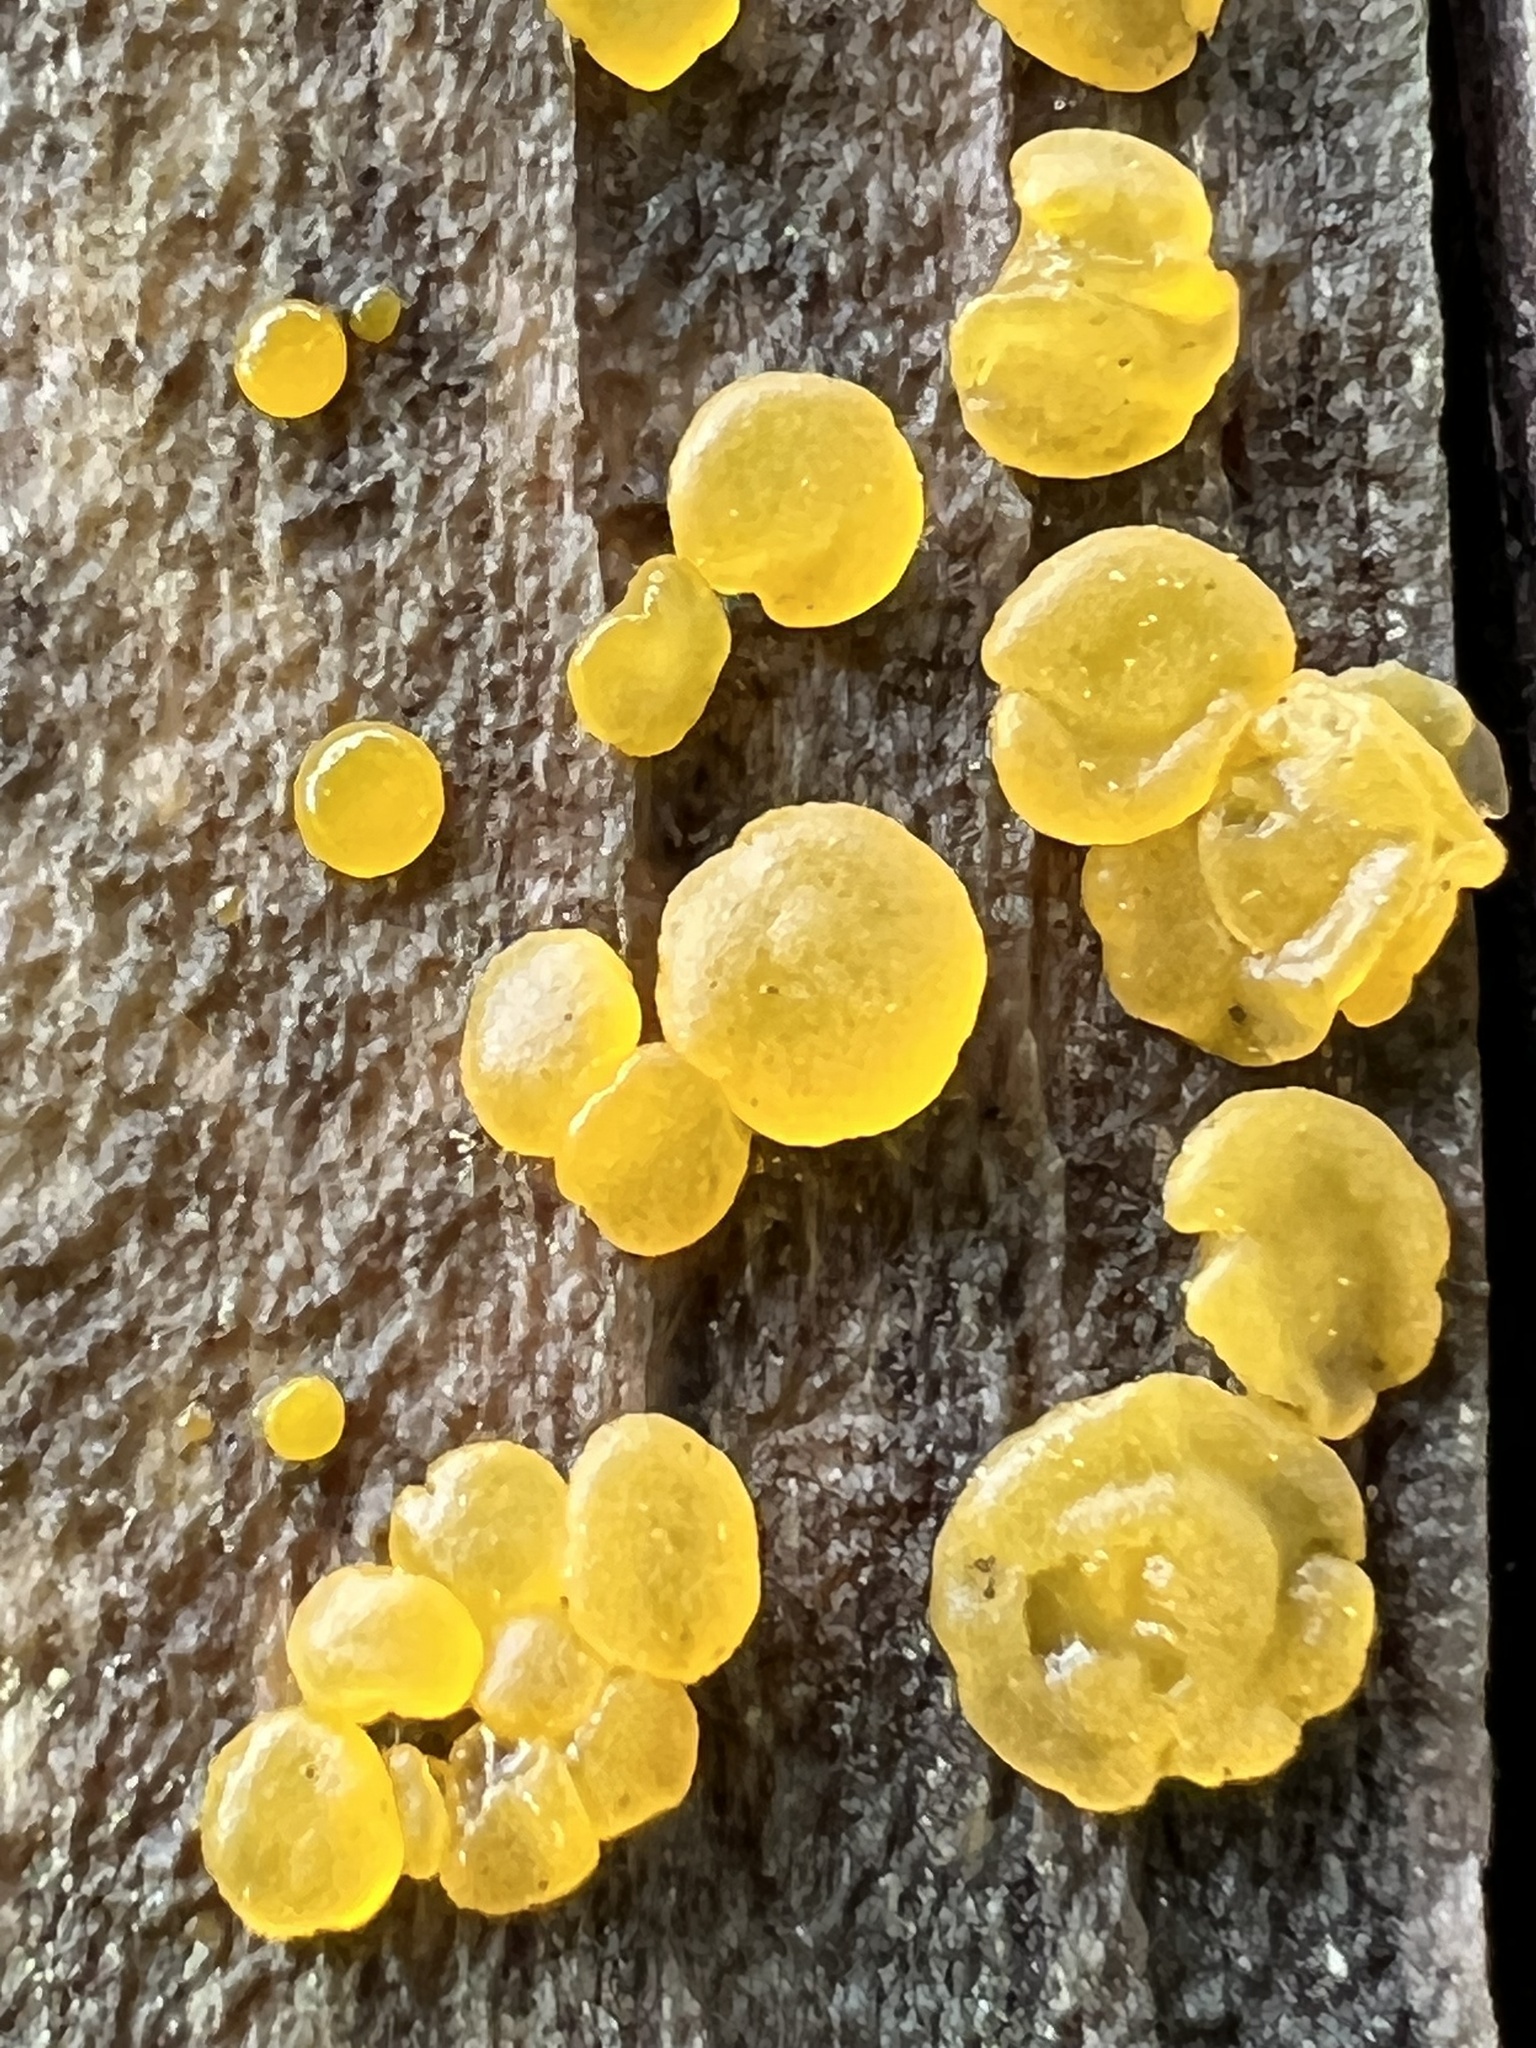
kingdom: Fungi
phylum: Basidiomycota
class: Dacrymycetes
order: Dacrymycetales
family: Dacrymycetaceae
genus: Dacrymyces
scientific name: Dacrymyces stillatus
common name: Common jelly spot
